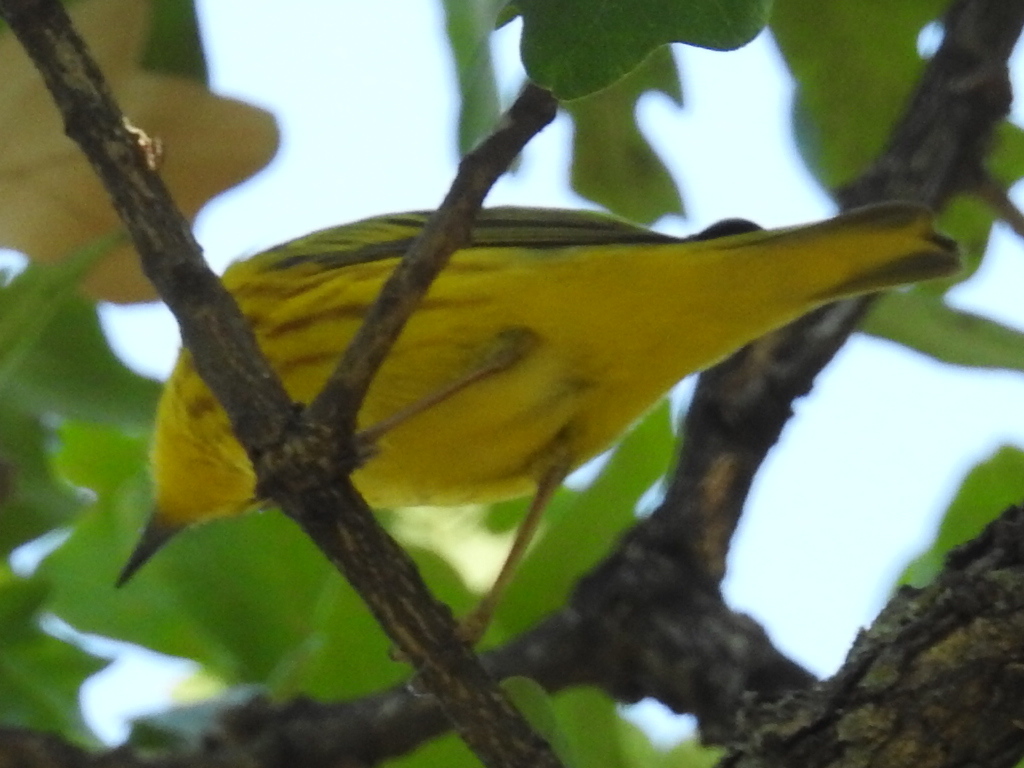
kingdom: Animalia
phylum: Chordata
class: Aves
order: Passeriformes
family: Parulidae
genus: Setophaga
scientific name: Setophaga petechia
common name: Yellow warbler
